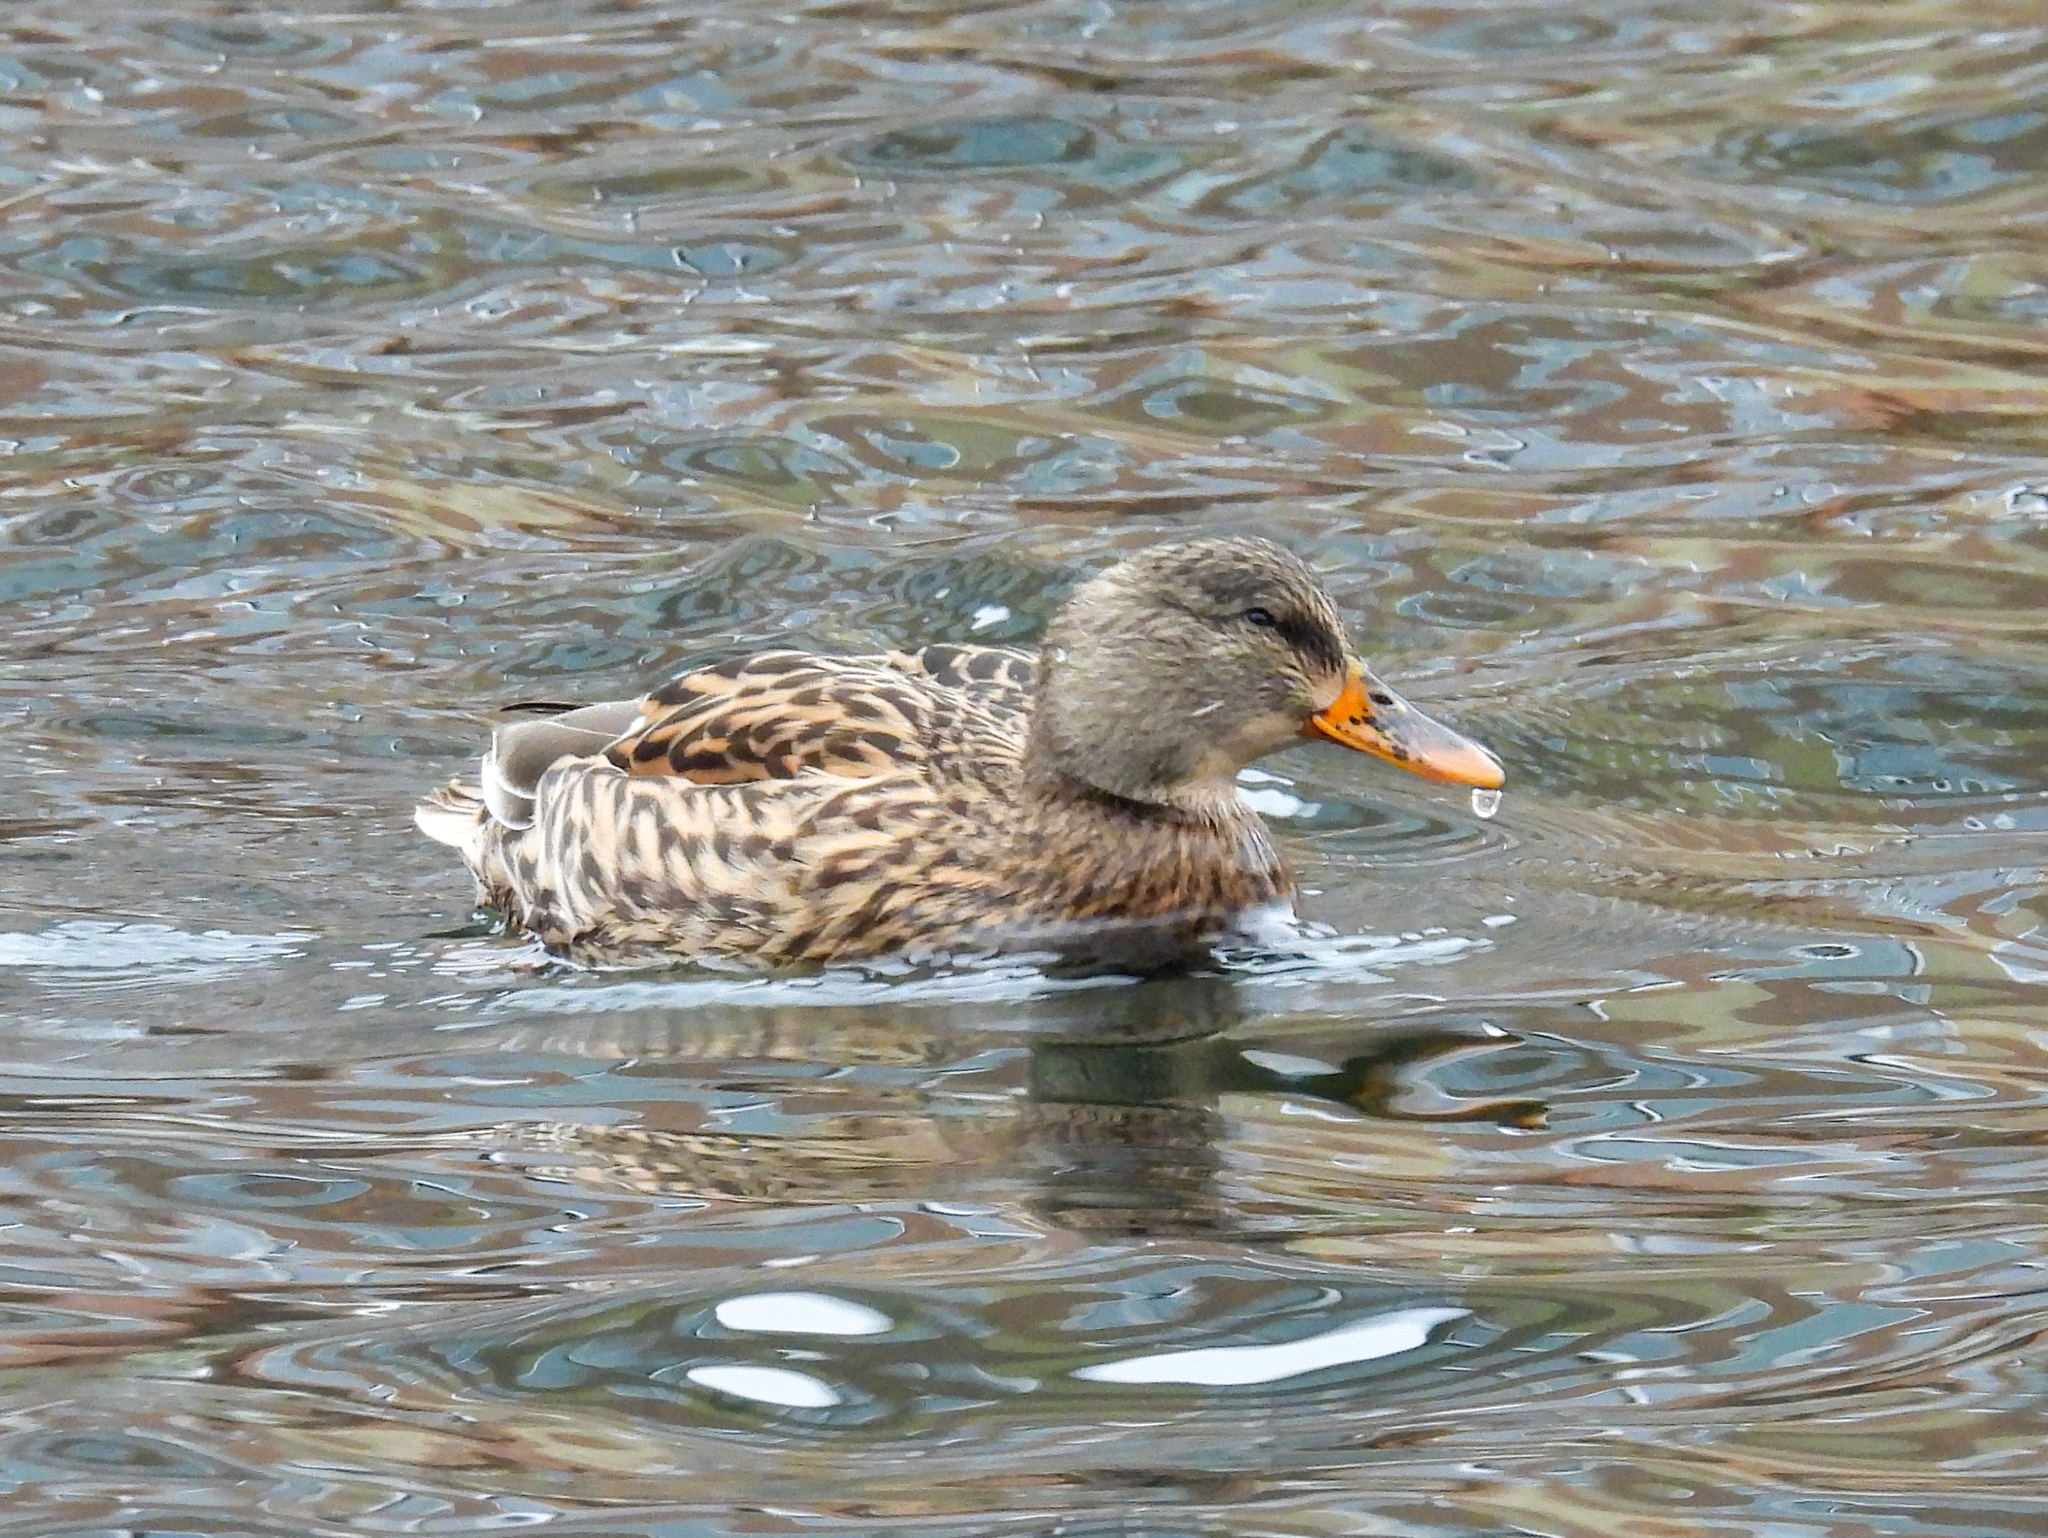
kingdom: Animalia
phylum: Chordata
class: Aves
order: Anseriformes
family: Anatidae
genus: Anas
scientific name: Anas platyrhynchos
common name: Mallard
